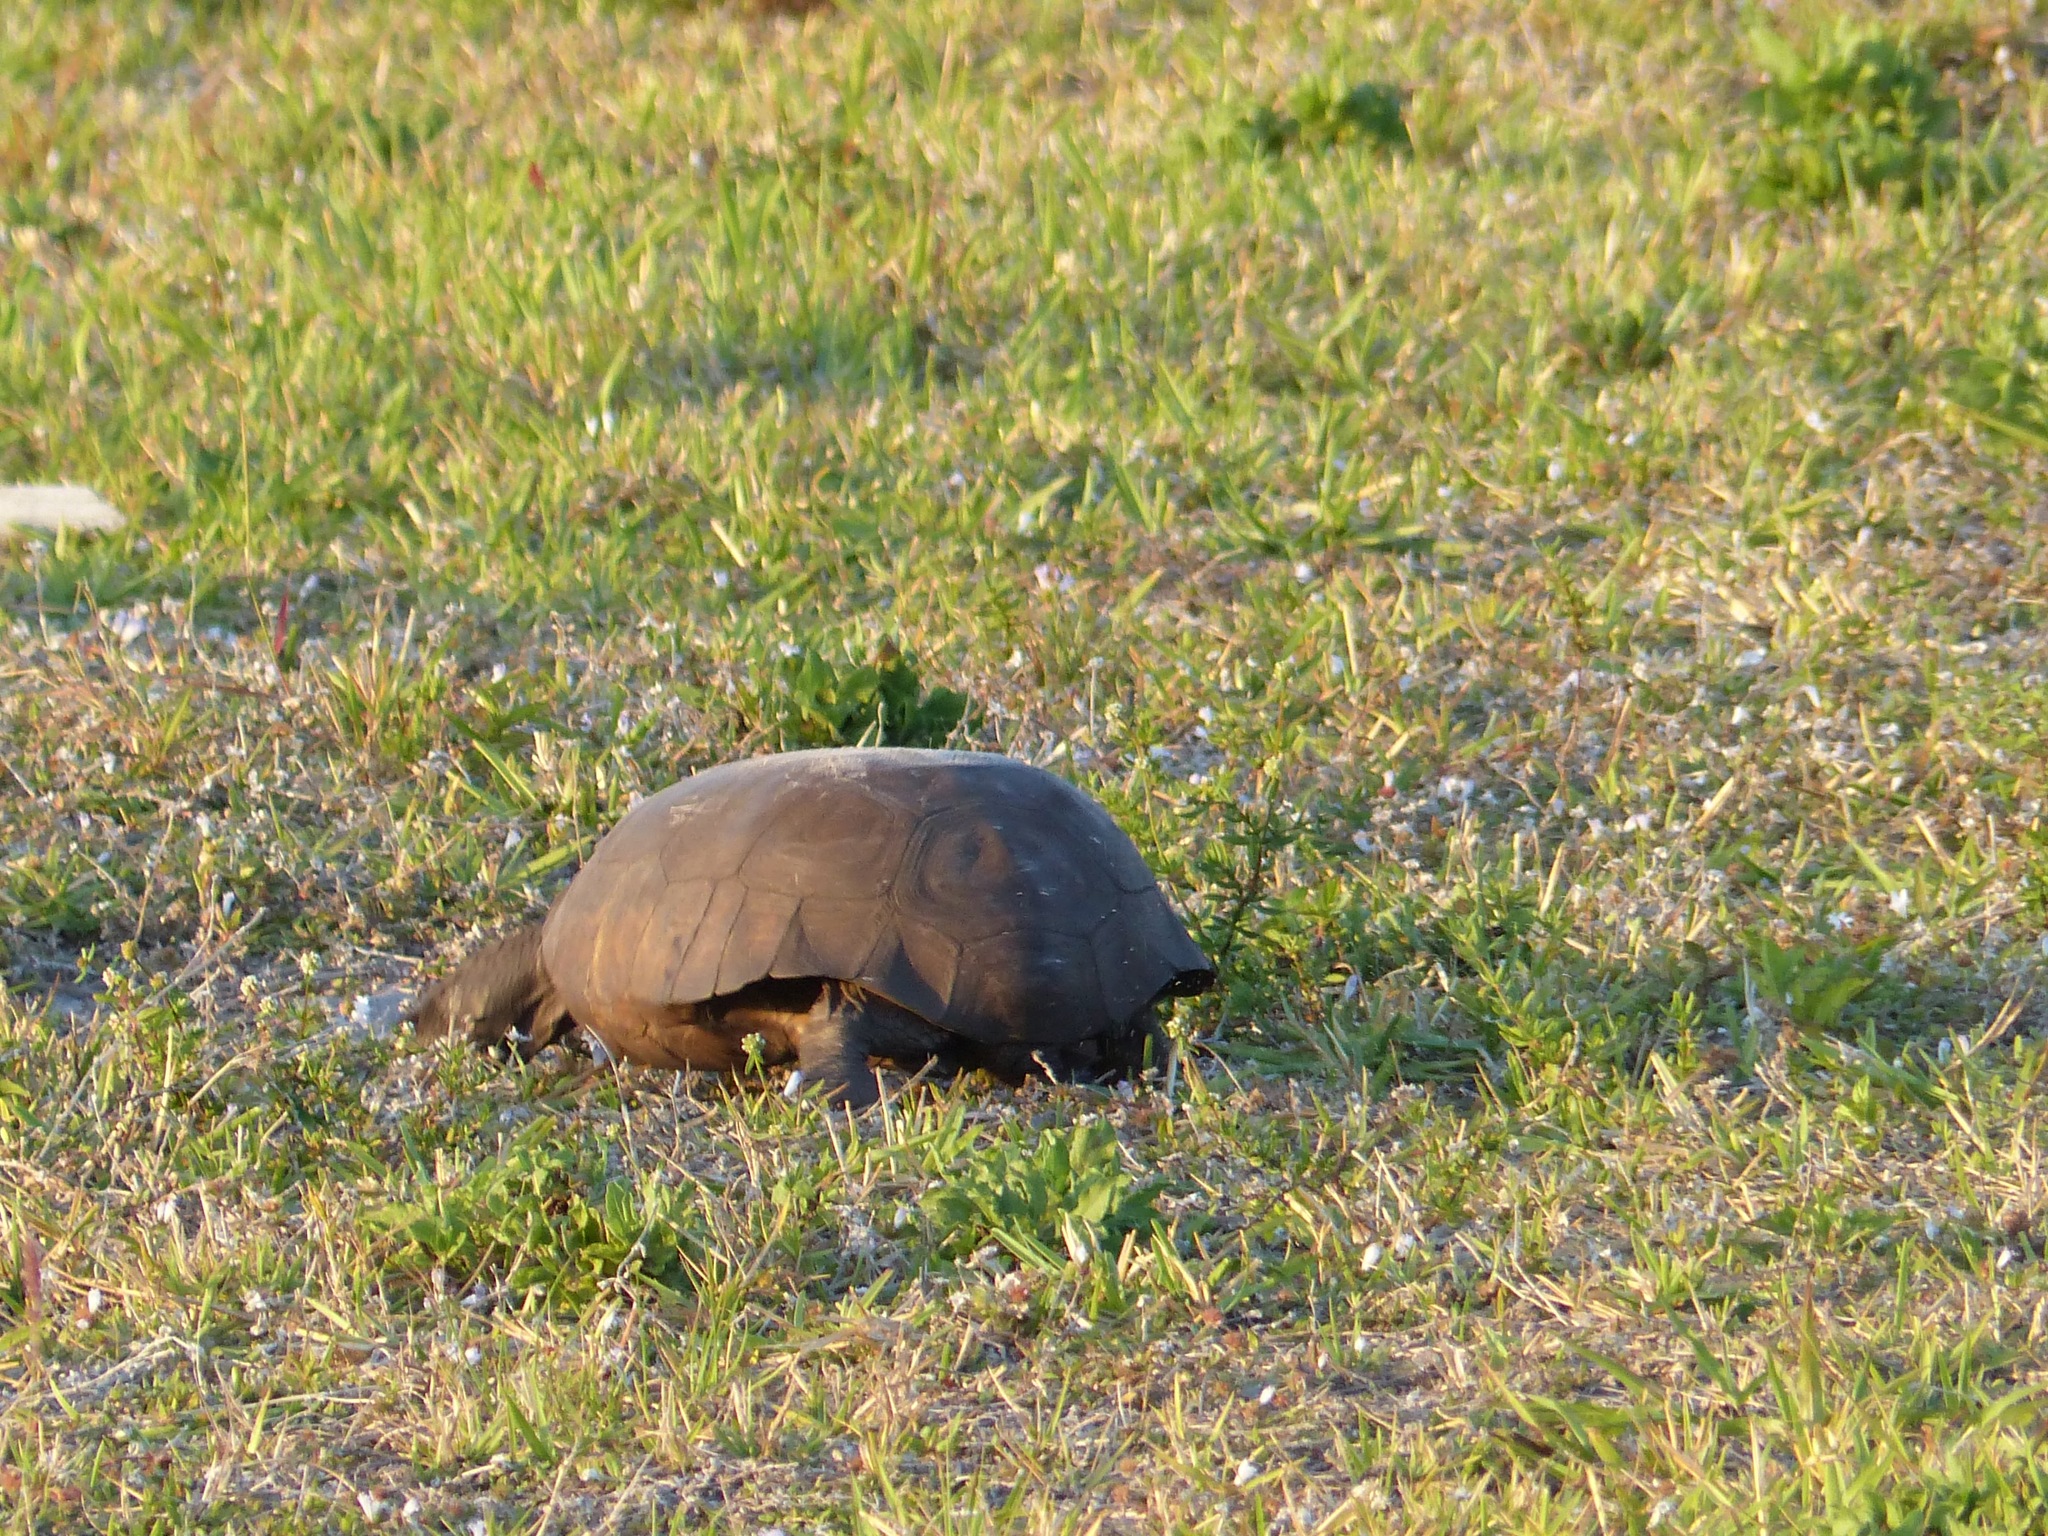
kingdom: Animalia
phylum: Chordata
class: Testudines
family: Testudinidae
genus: Gopherus
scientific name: Gopherus polyphemus
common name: Florida gopher tortoise
